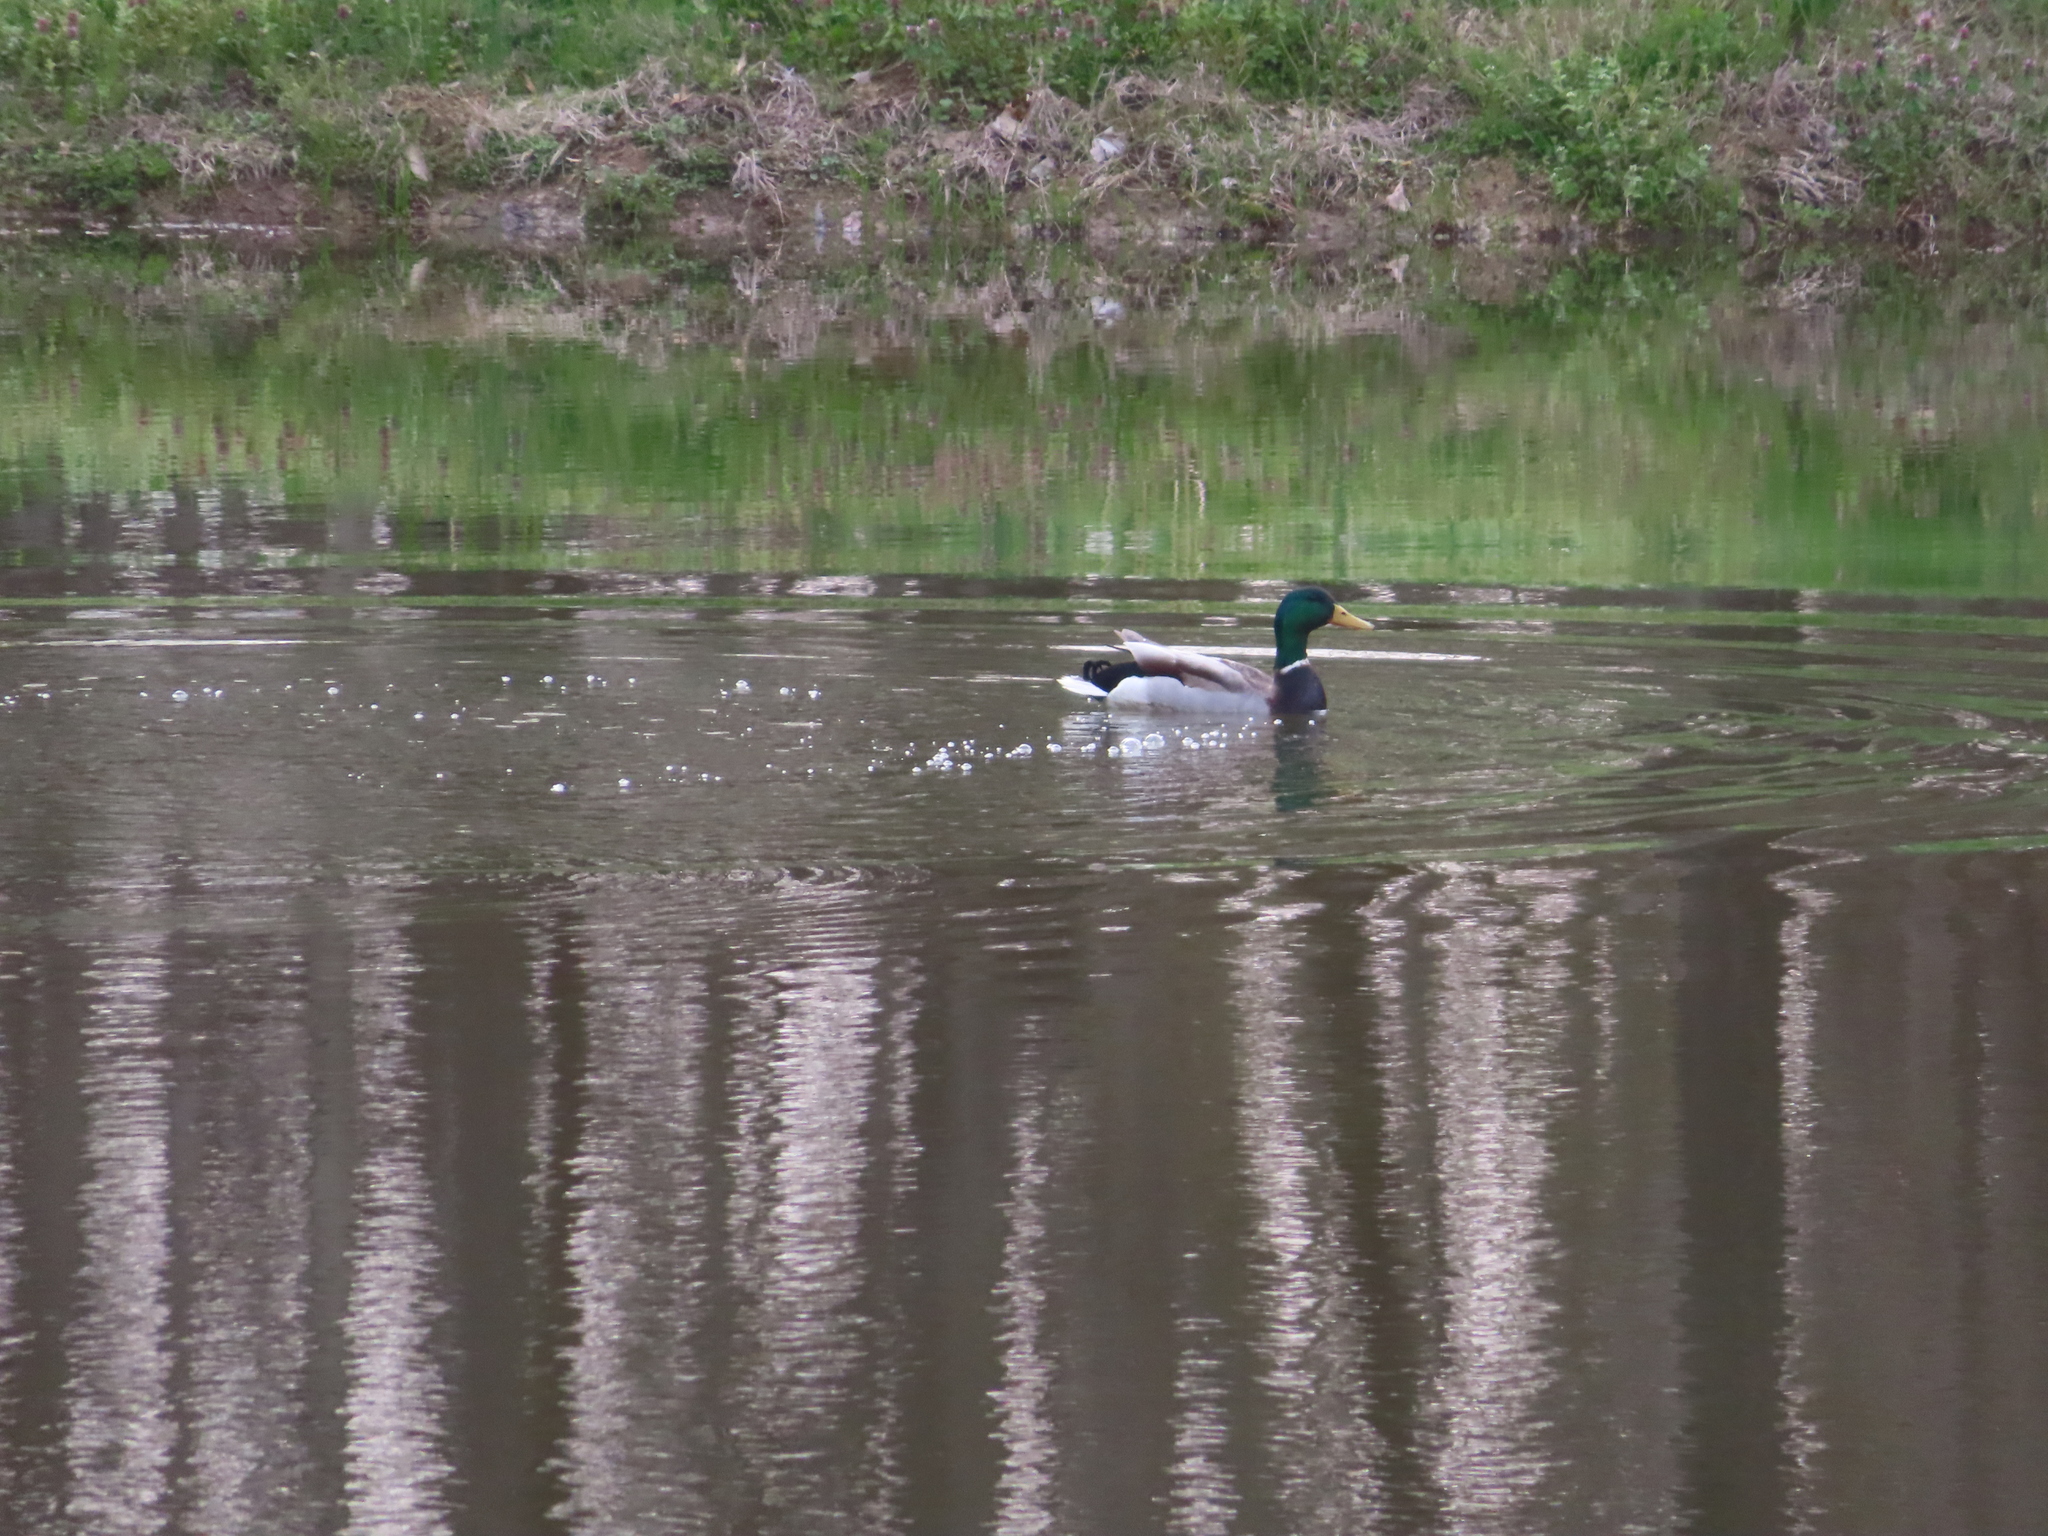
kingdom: Animalia
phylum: Chordata
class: Aves
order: Anseriformes
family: Anatidae
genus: Anas
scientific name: Anas platyrhynchos
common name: Mallard
